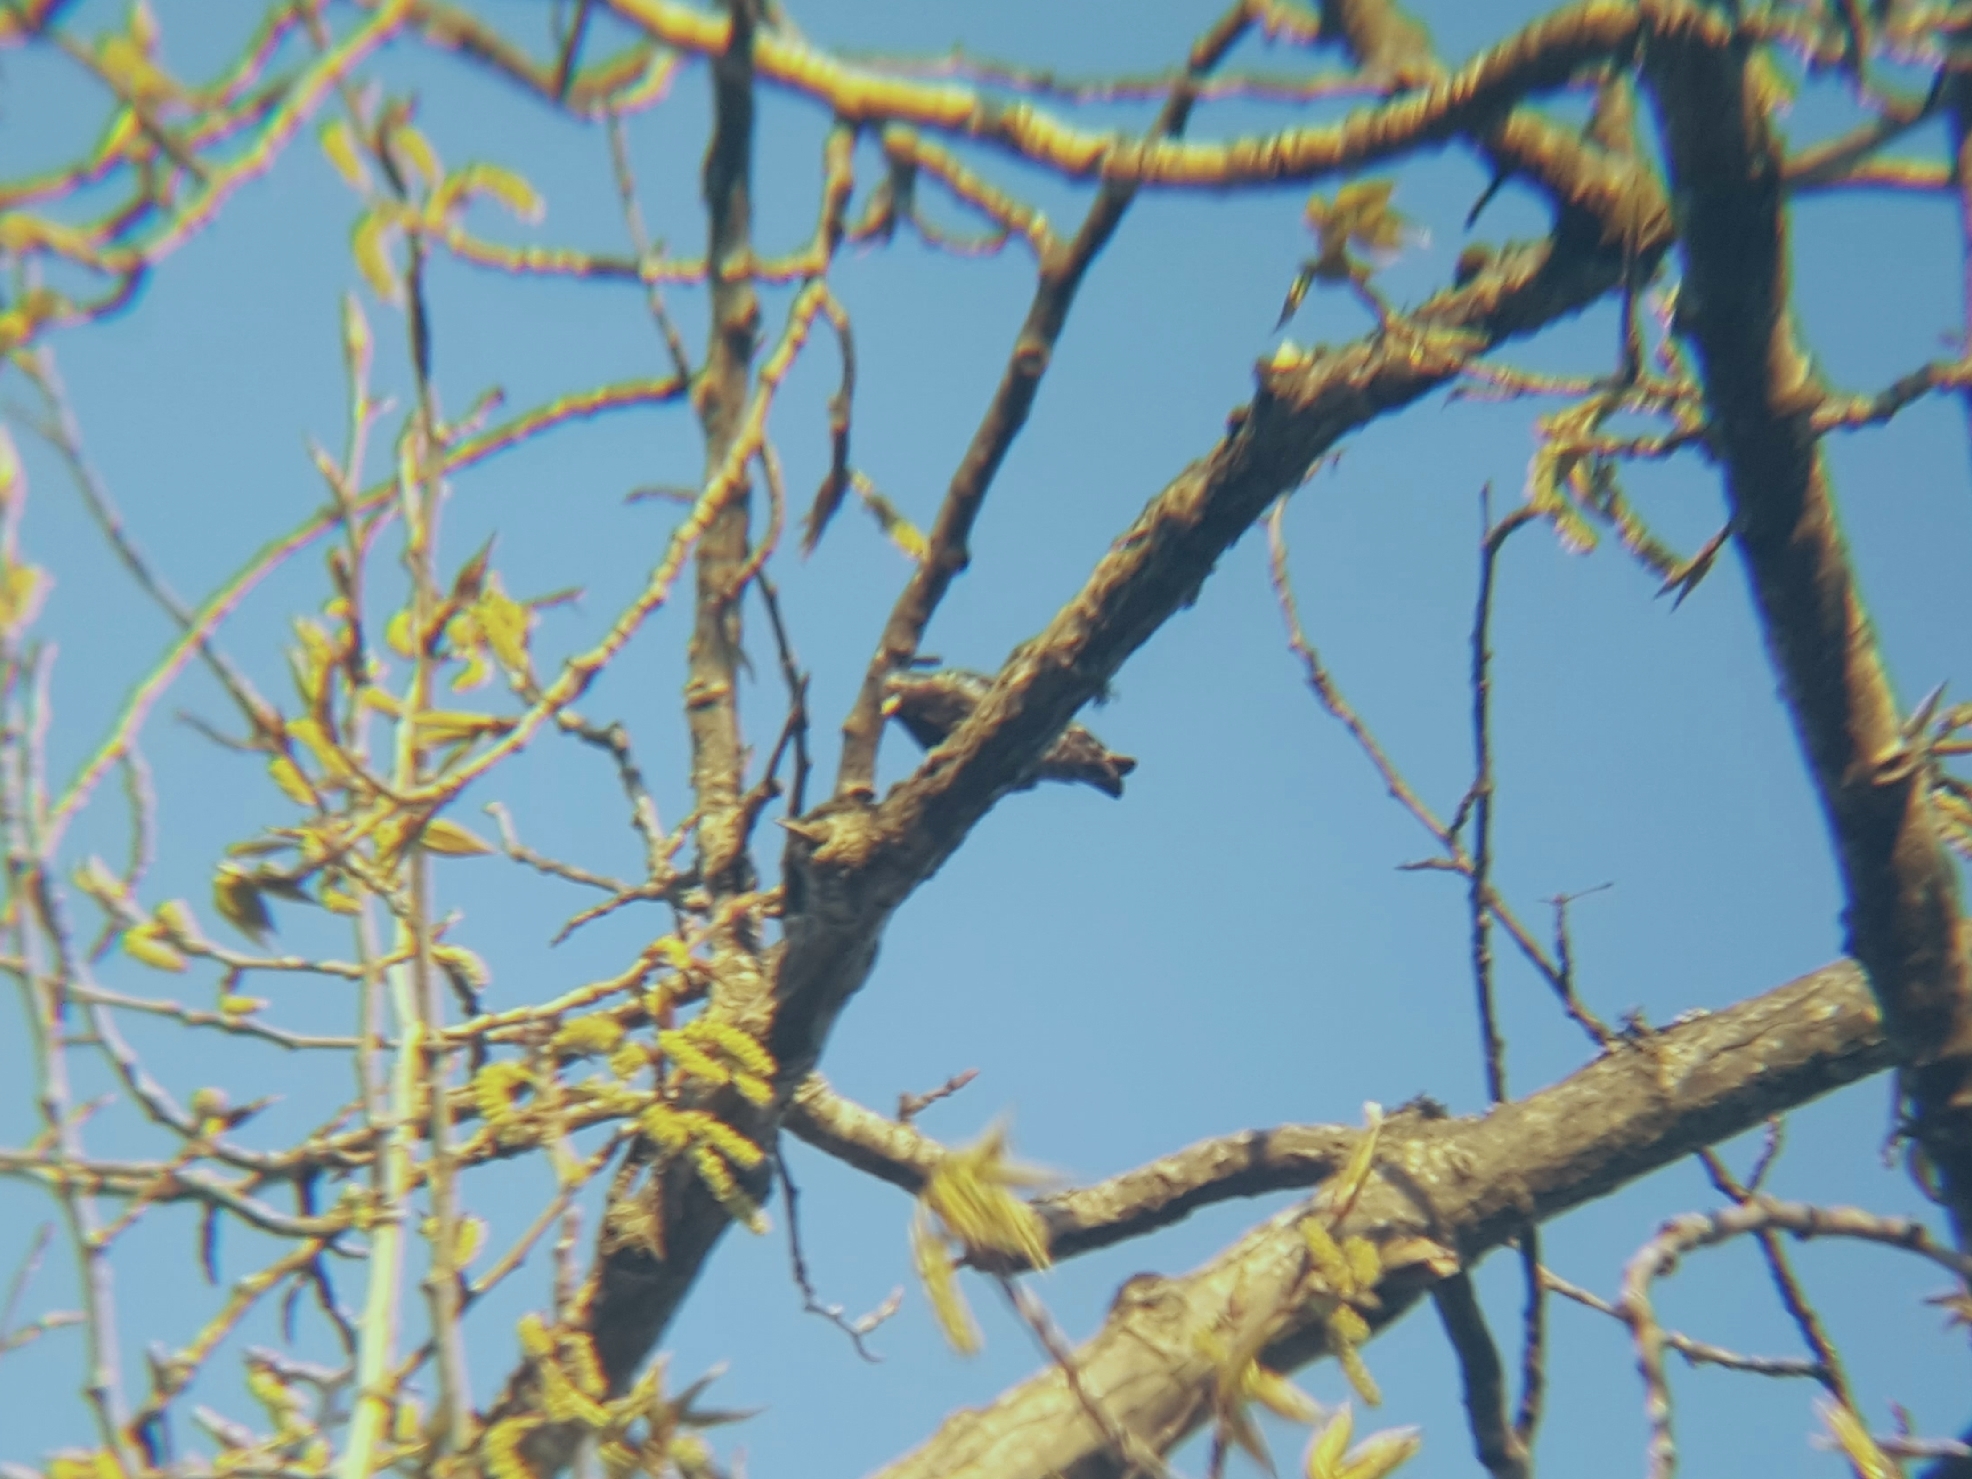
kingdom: Animalia
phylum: Chordata
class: Aves
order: Passeriformes
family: Sturnidae
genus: Sturnus
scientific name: Sturnus vulgaris
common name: Common starling
